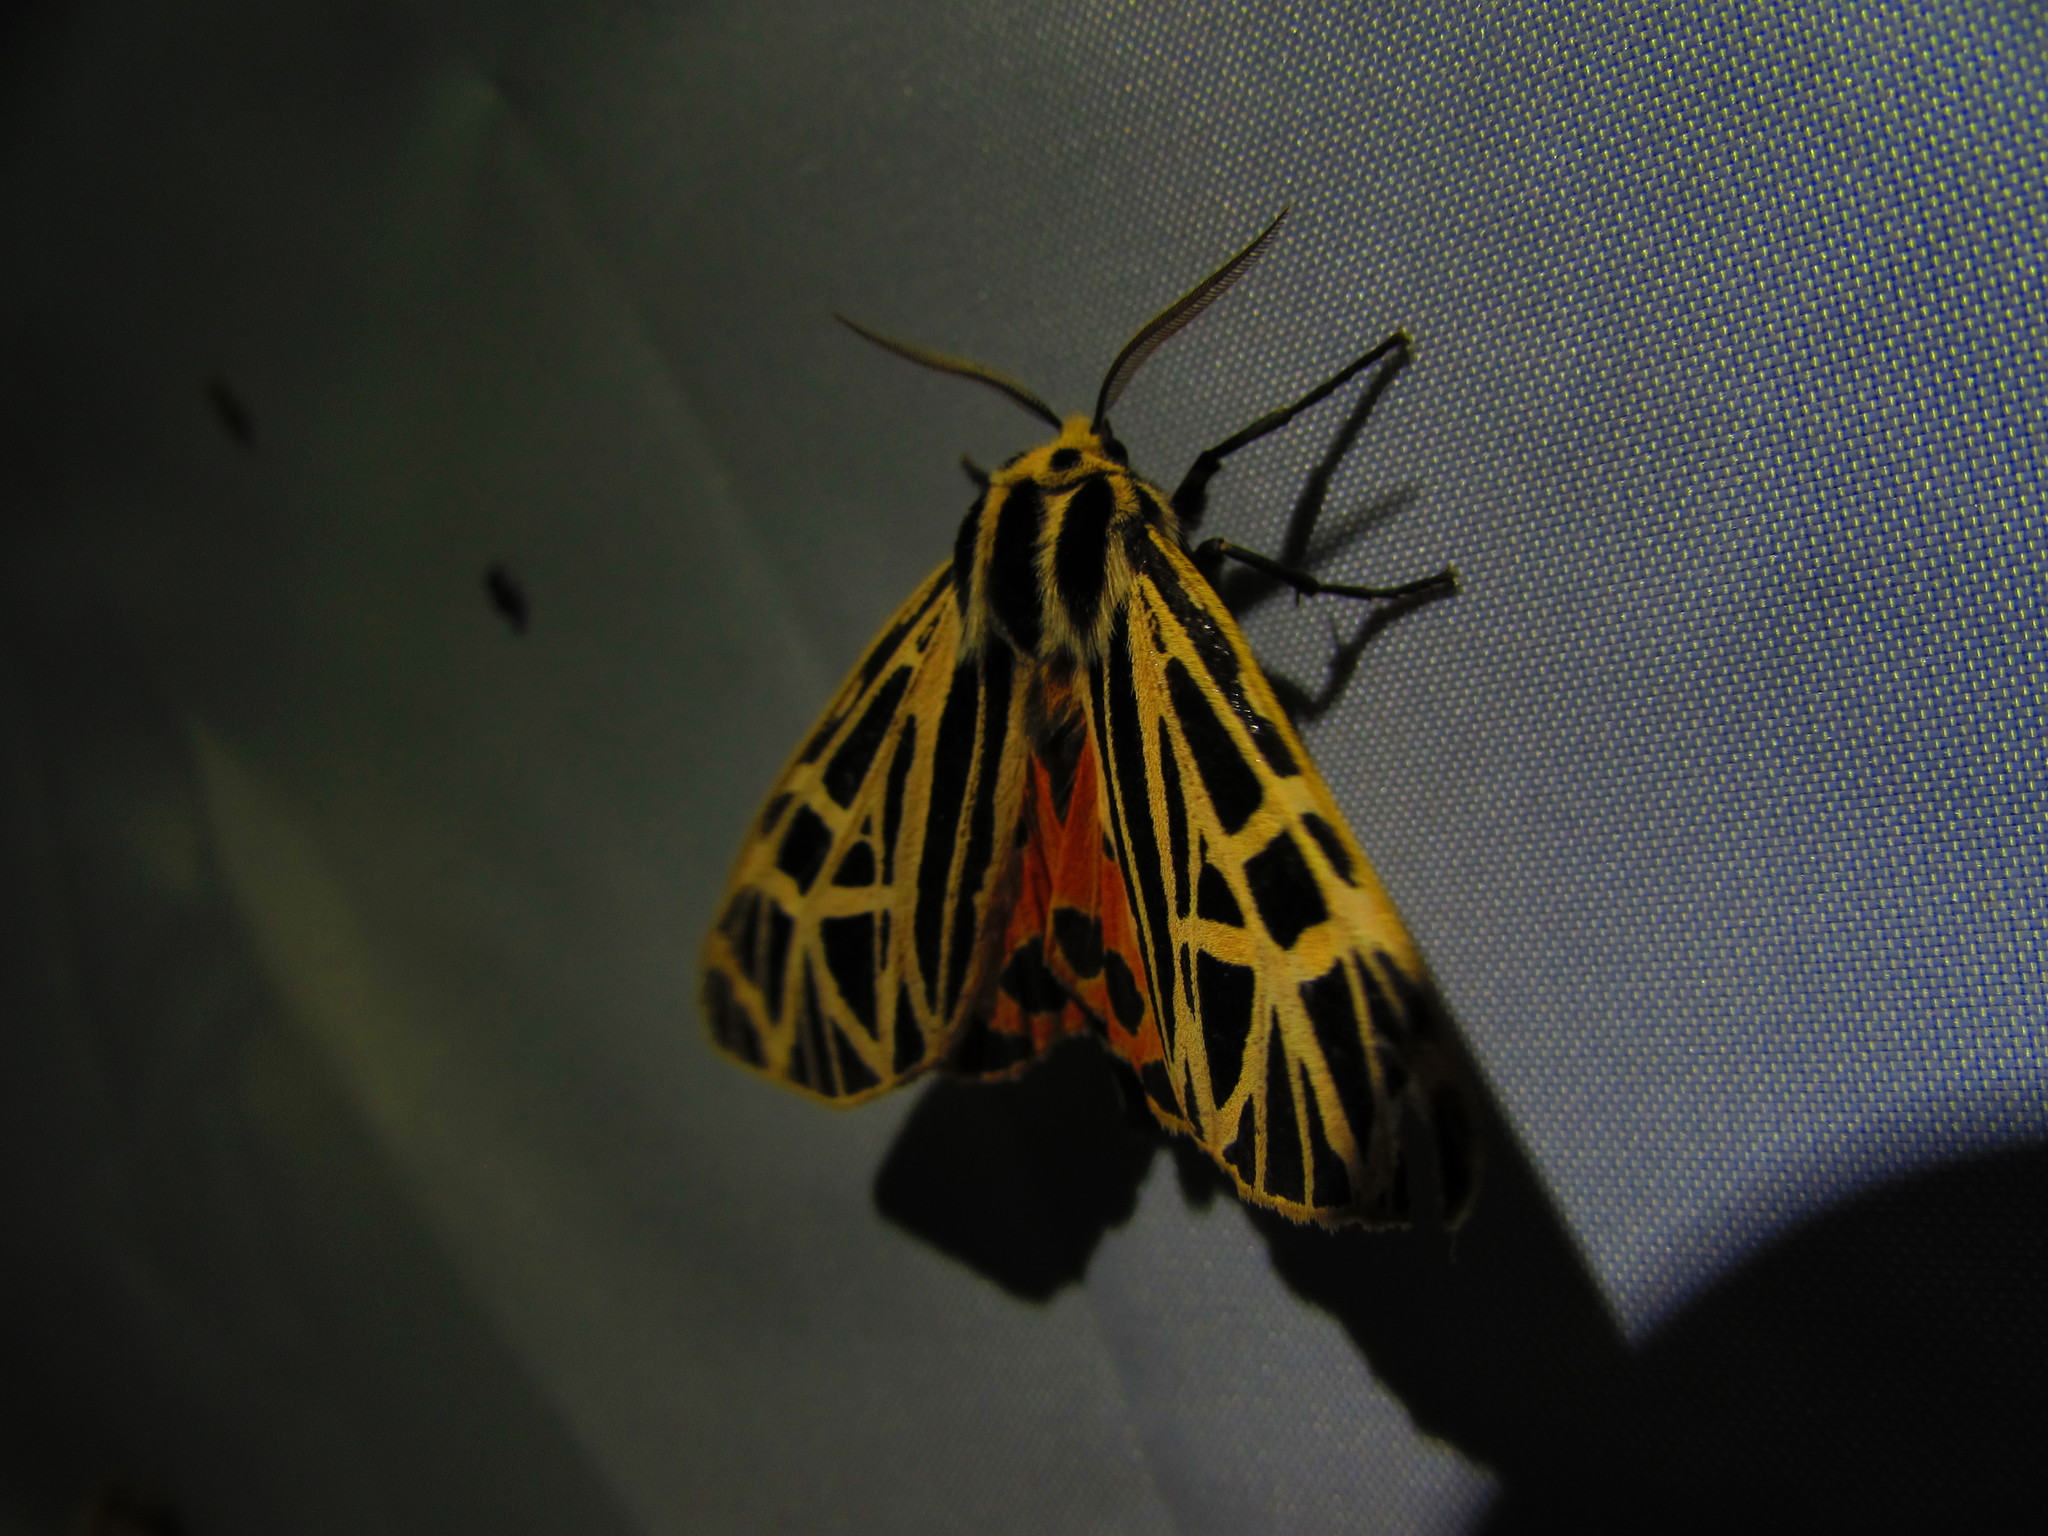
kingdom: Animalia
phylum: Arthropoda
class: Insecta
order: Lepidoptera
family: Erebidae
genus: Grammia
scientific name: Grammia virgo
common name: Virgin tiger moth
